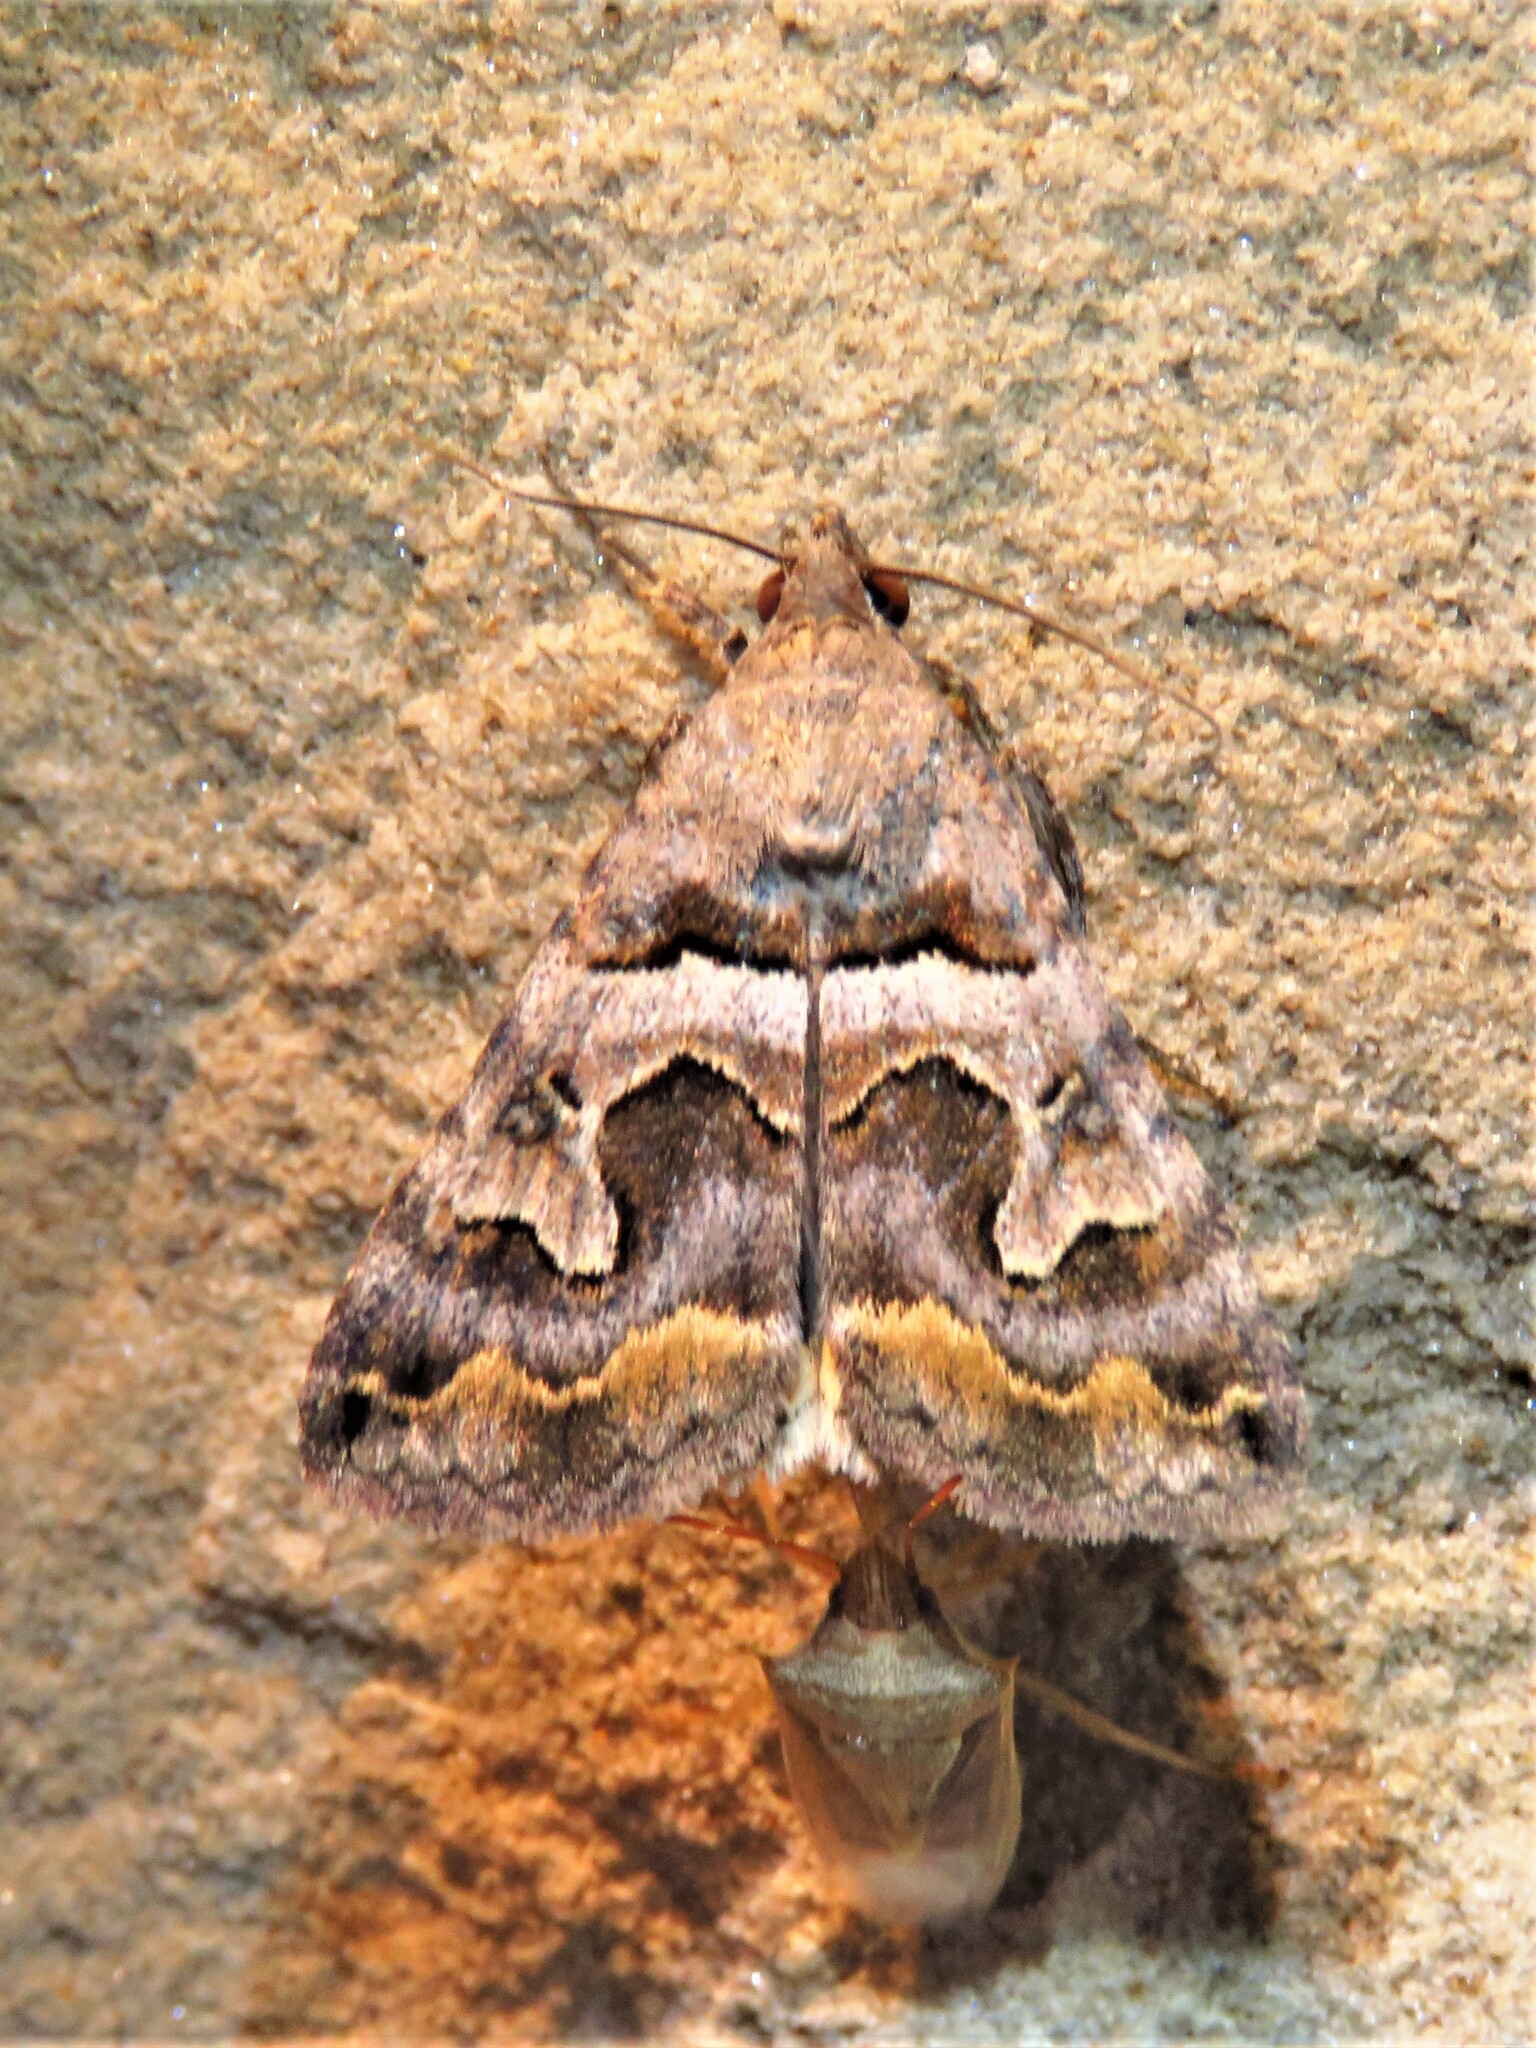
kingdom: Animalia
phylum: Arthropoda
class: Insecta
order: Lepidoptera
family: Erebidae
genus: Bulia
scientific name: Bulia deducta
